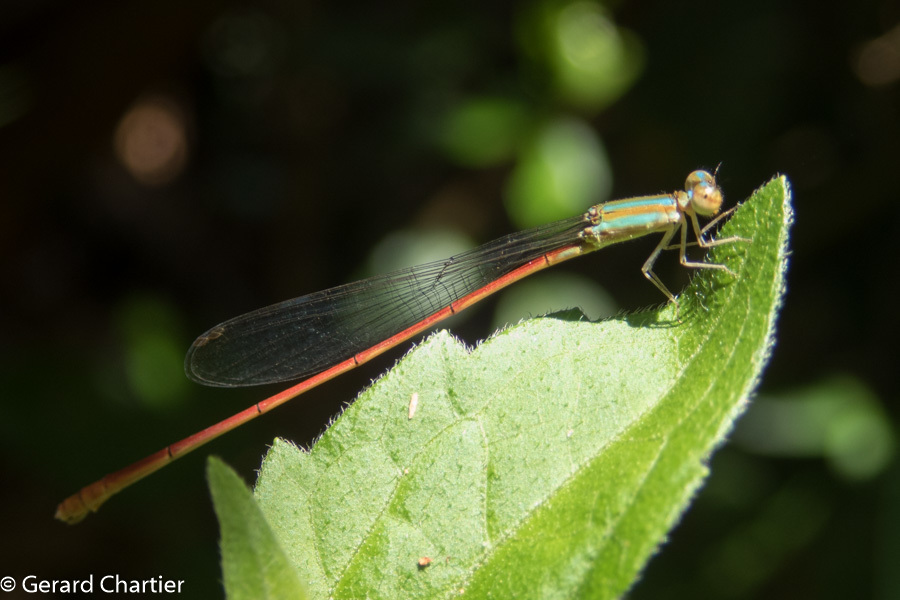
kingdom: Animalia
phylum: Arthropoda
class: Insecta
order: Odonata
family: Coenagrionidae
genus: Aciagrion
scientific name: Aciagrion pallidum
